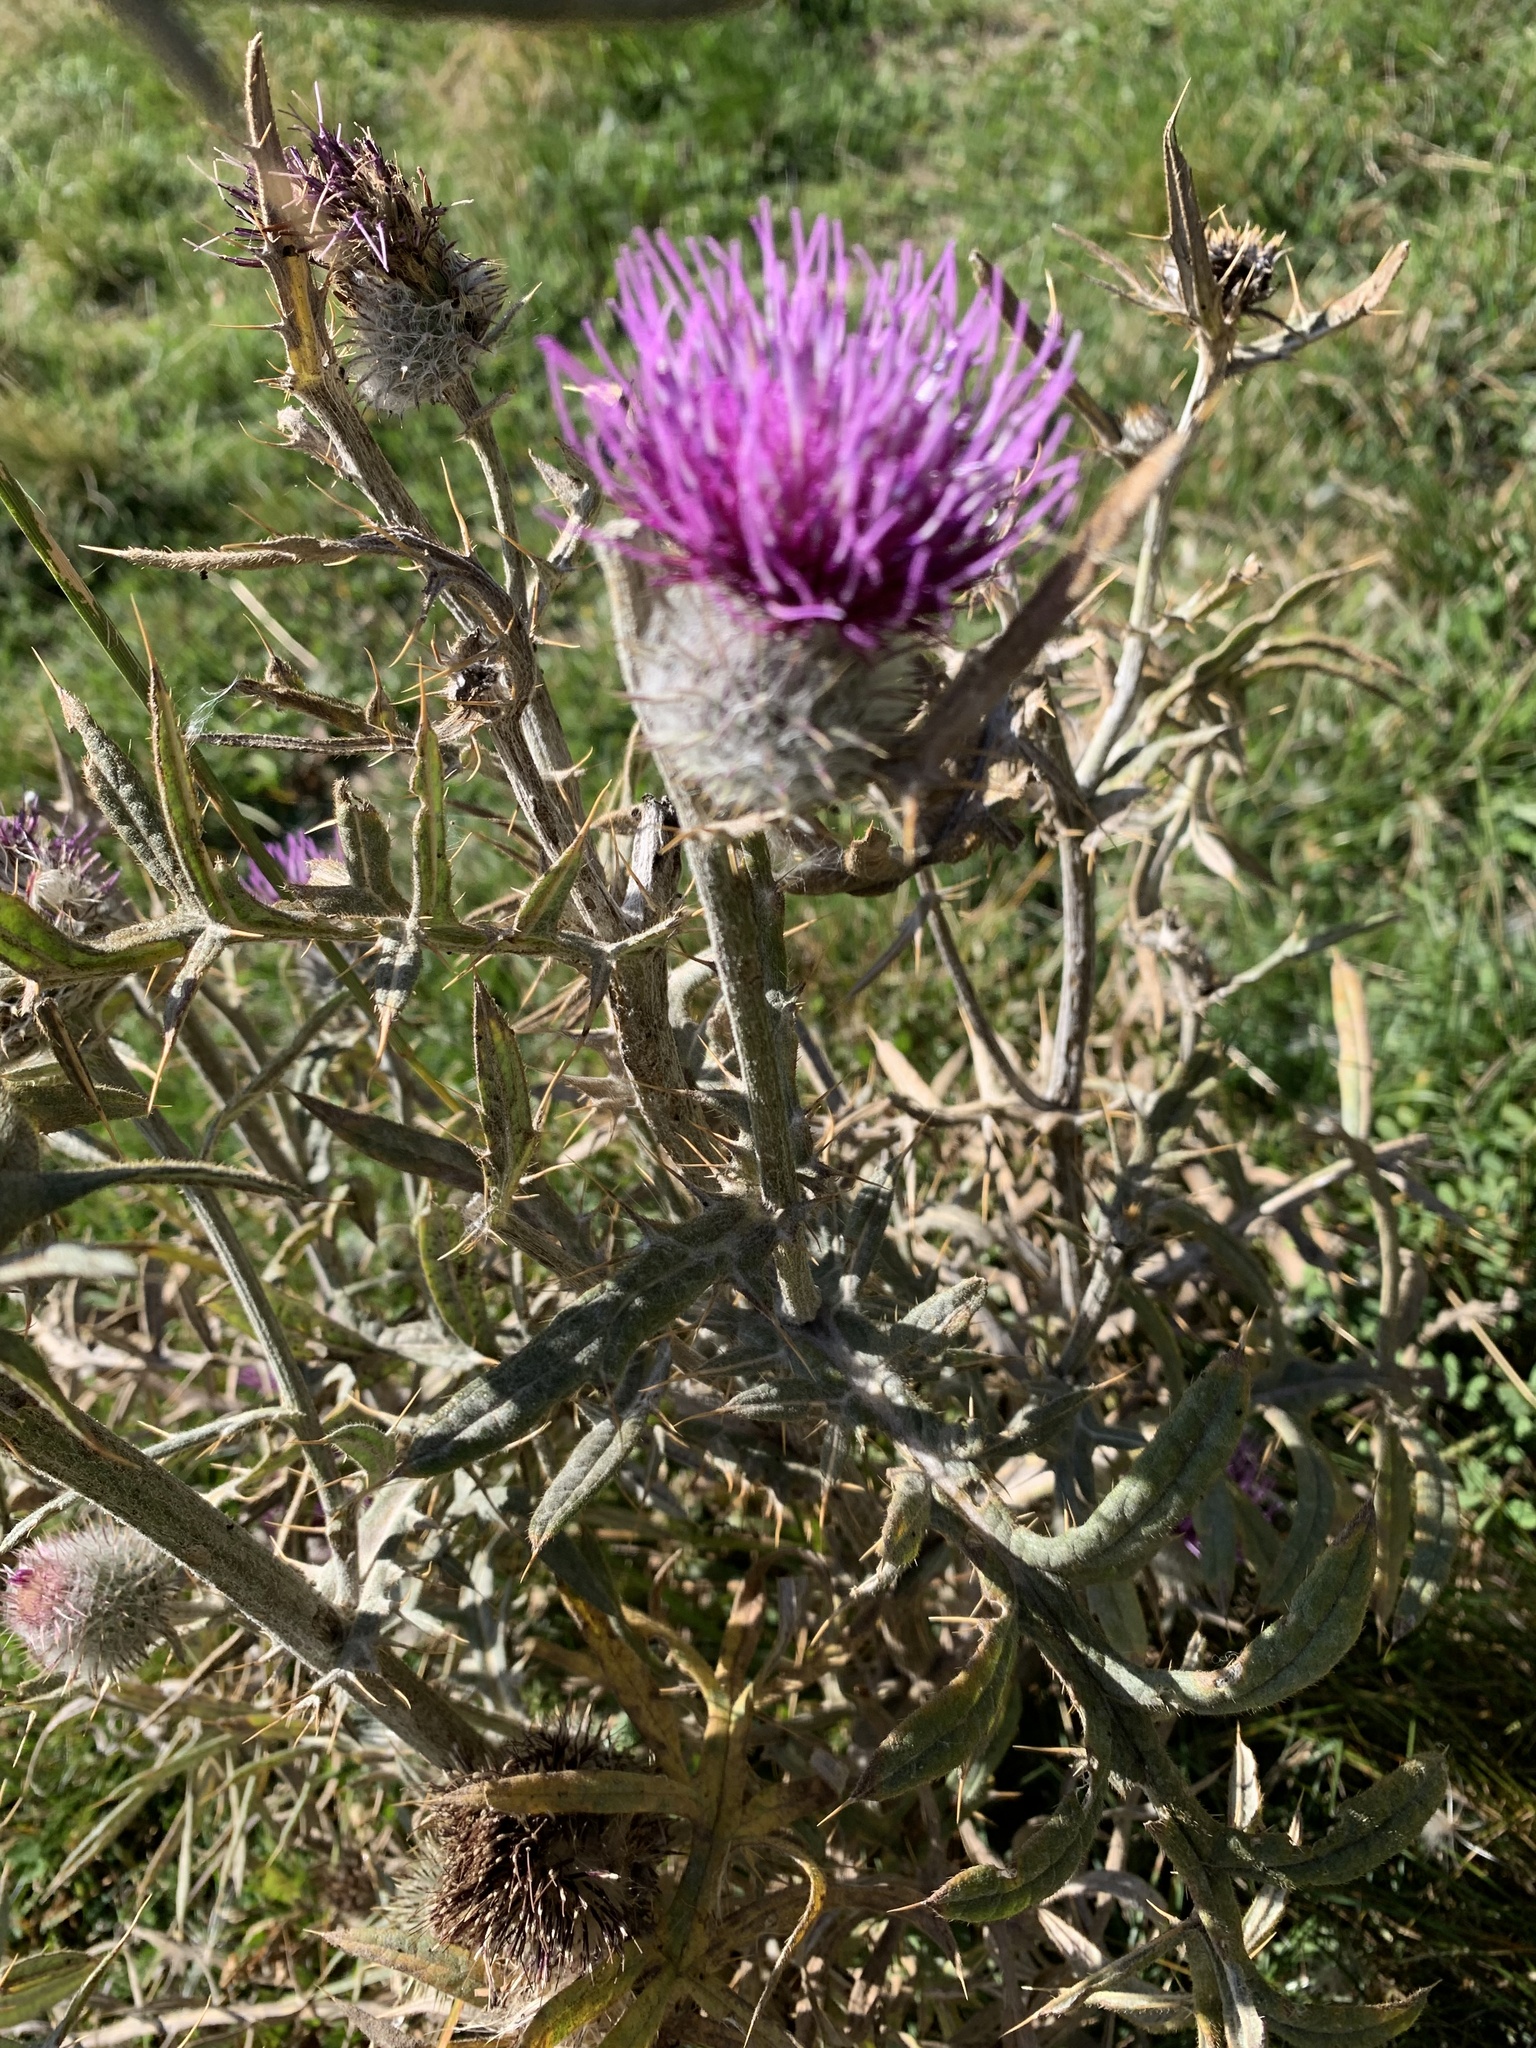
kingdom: Plantae
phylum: Tracheophyta
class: Magnoliopsida
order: Asterales
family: Asteraceae
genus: Lophiolepis
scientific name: Lophiolepis eriophora
